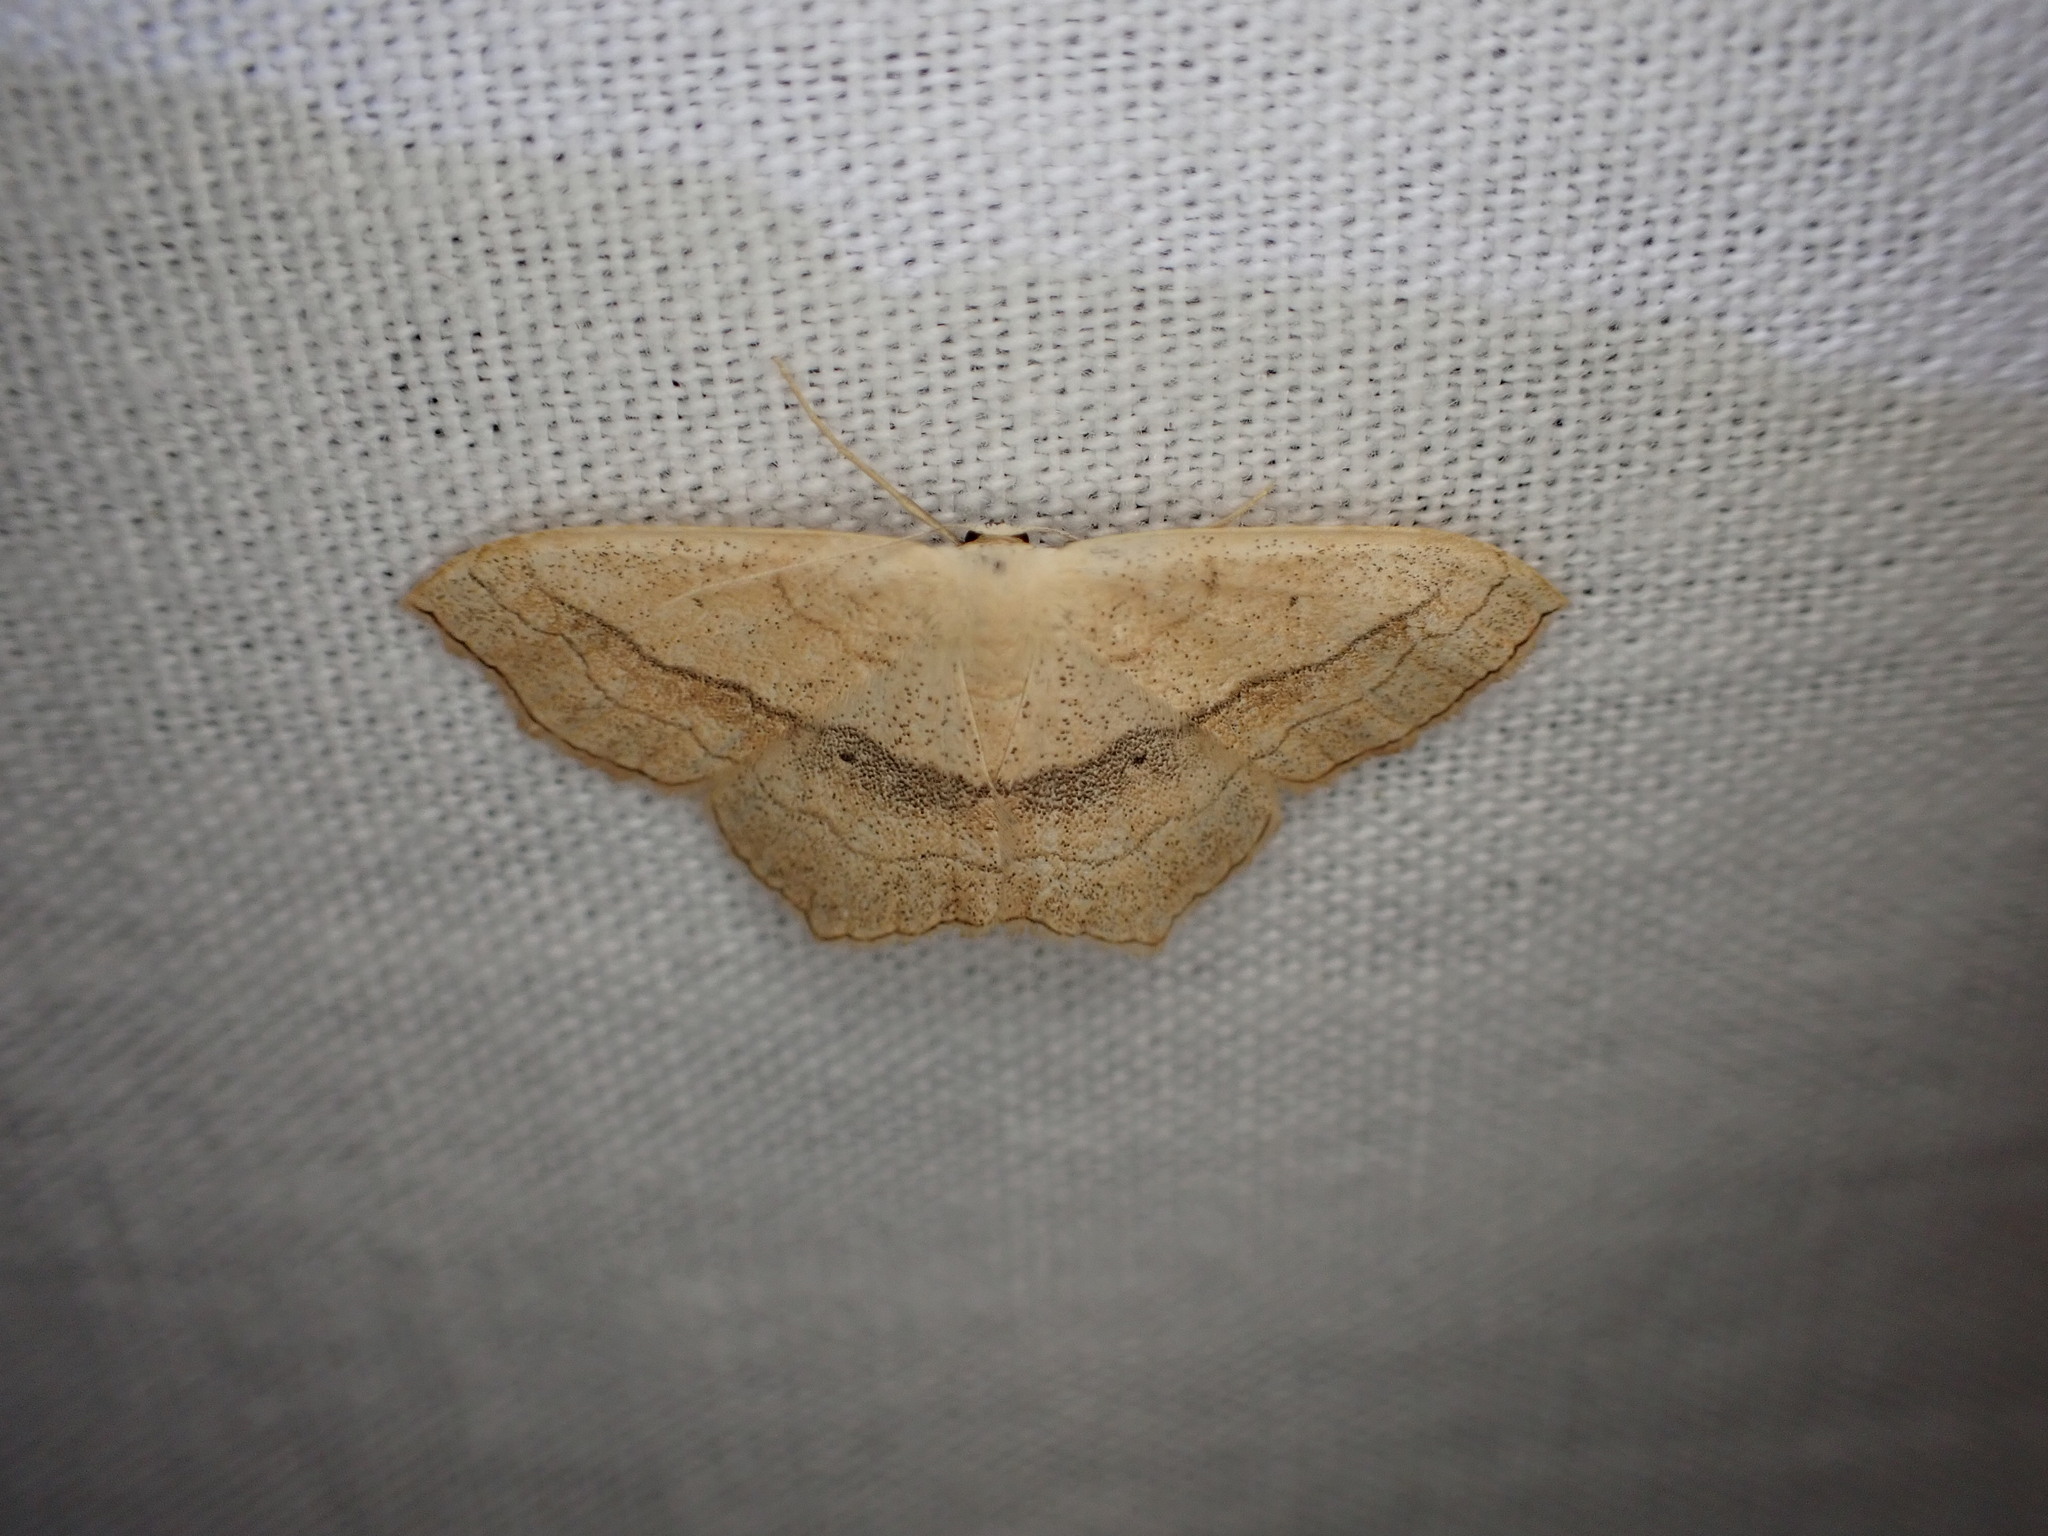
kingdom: Animalia
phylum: Arthropoda
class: Insecta
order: Lepidoptera
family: Geometridae
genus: Scopula
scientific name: Scopula imitaria
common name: Small blood-vein
